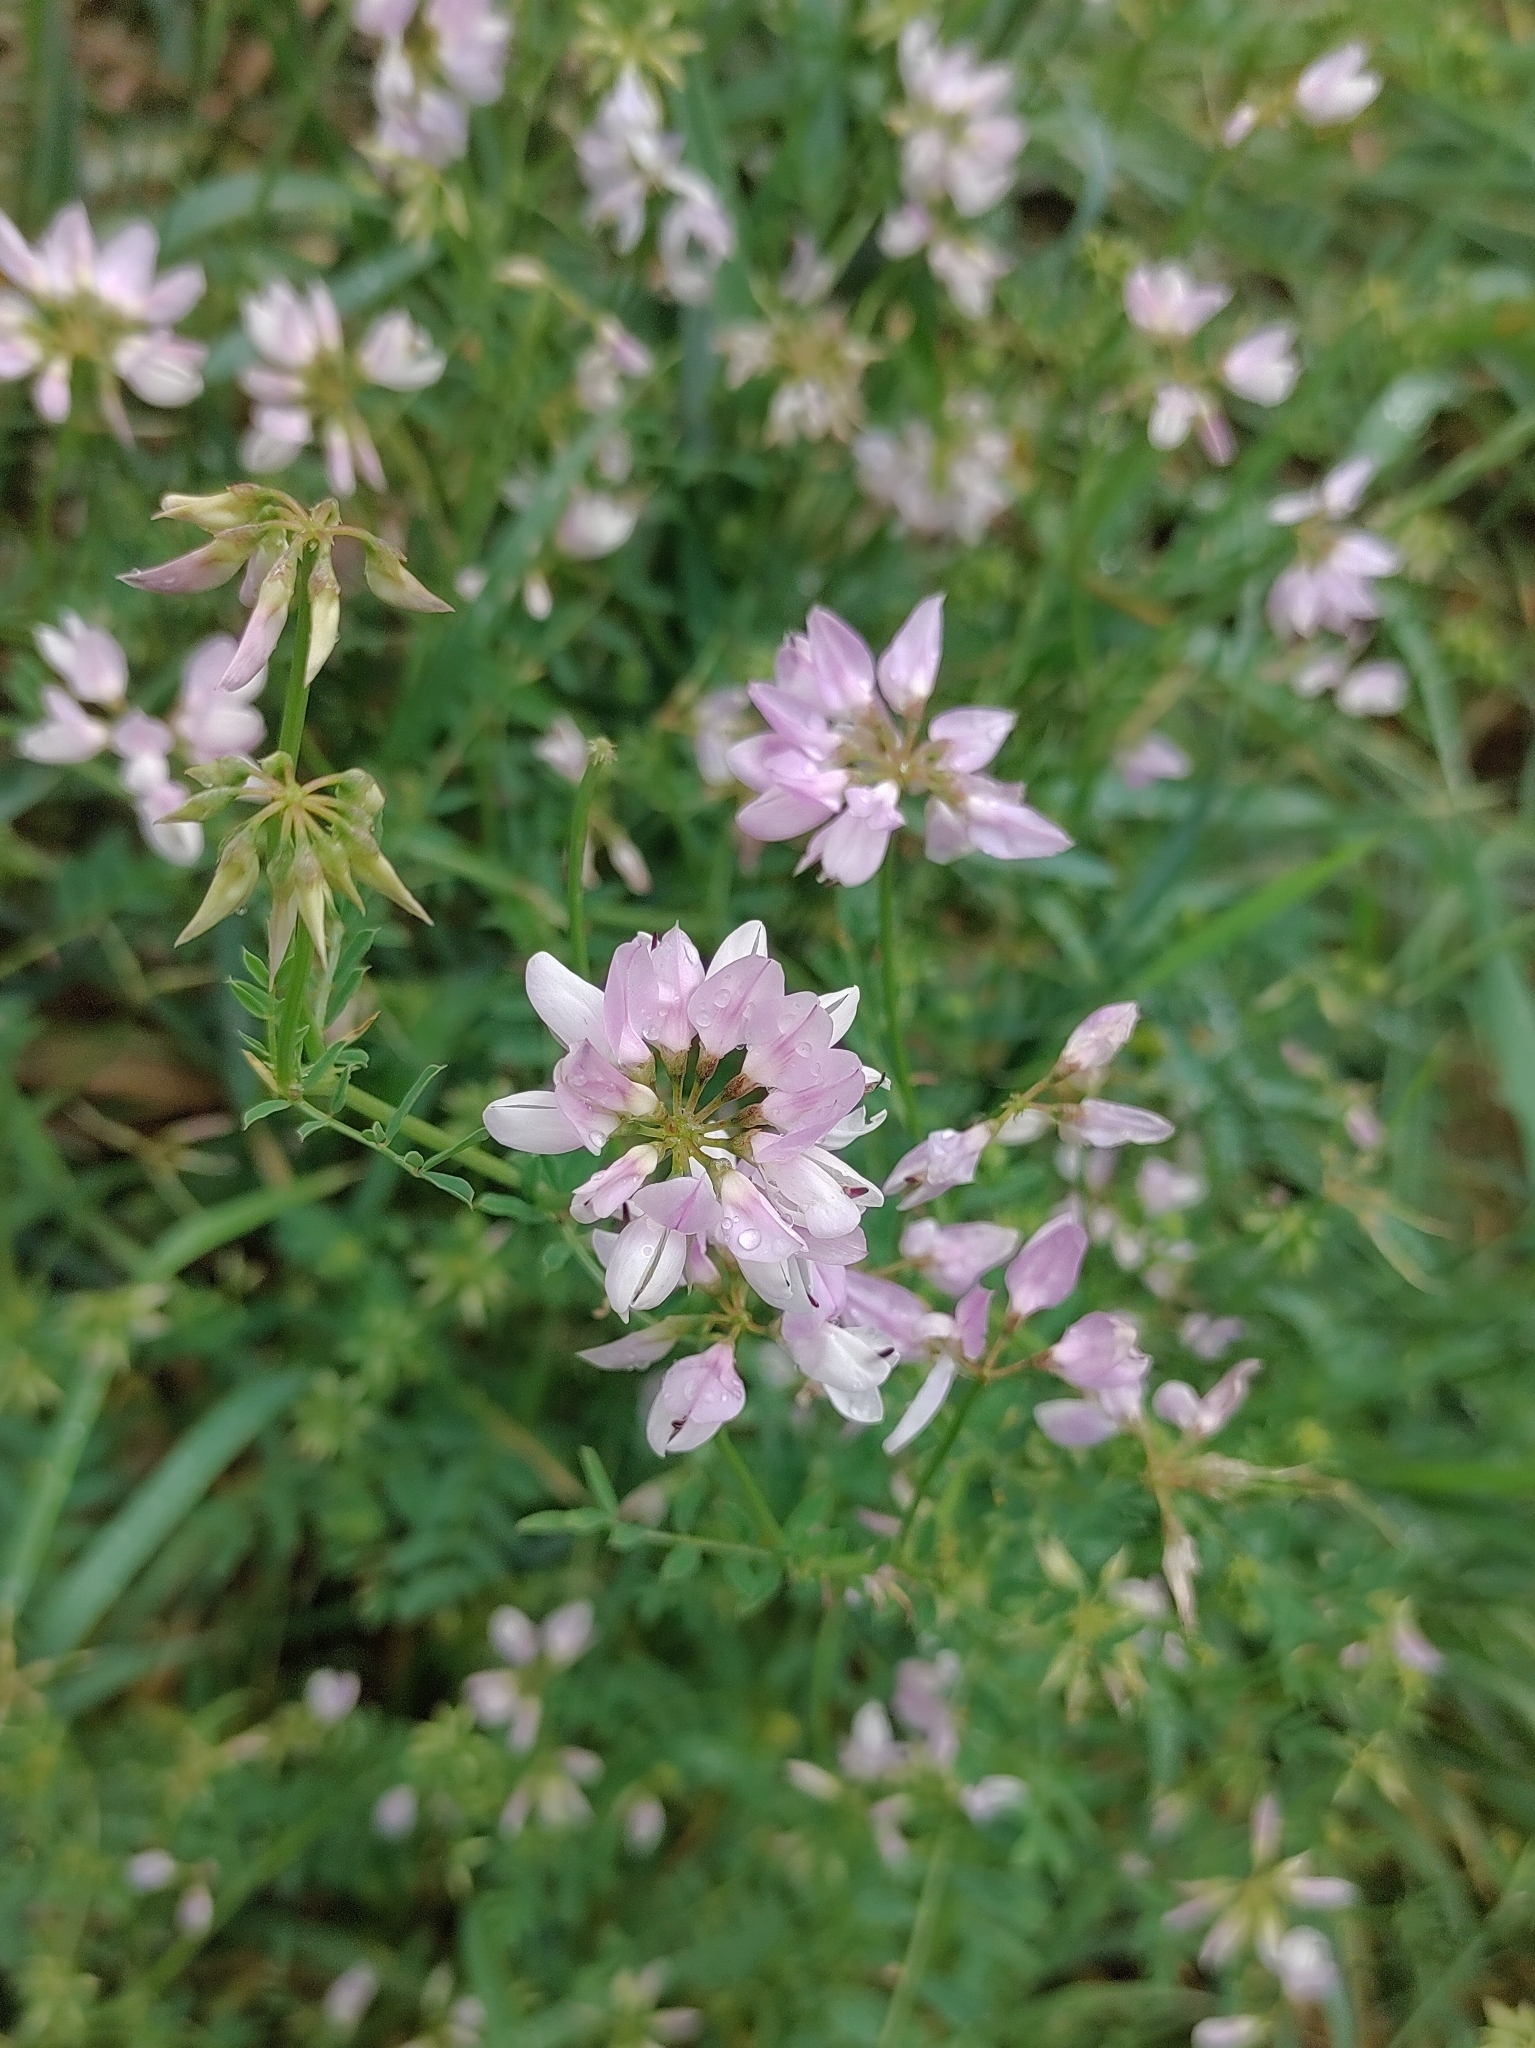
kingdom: Plantae
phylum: Tracheophyta
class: Magnoliopsida
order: Fabales
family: Fabaceae
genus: Coronilla
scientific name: Coronilla varia
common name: Crownvetch
